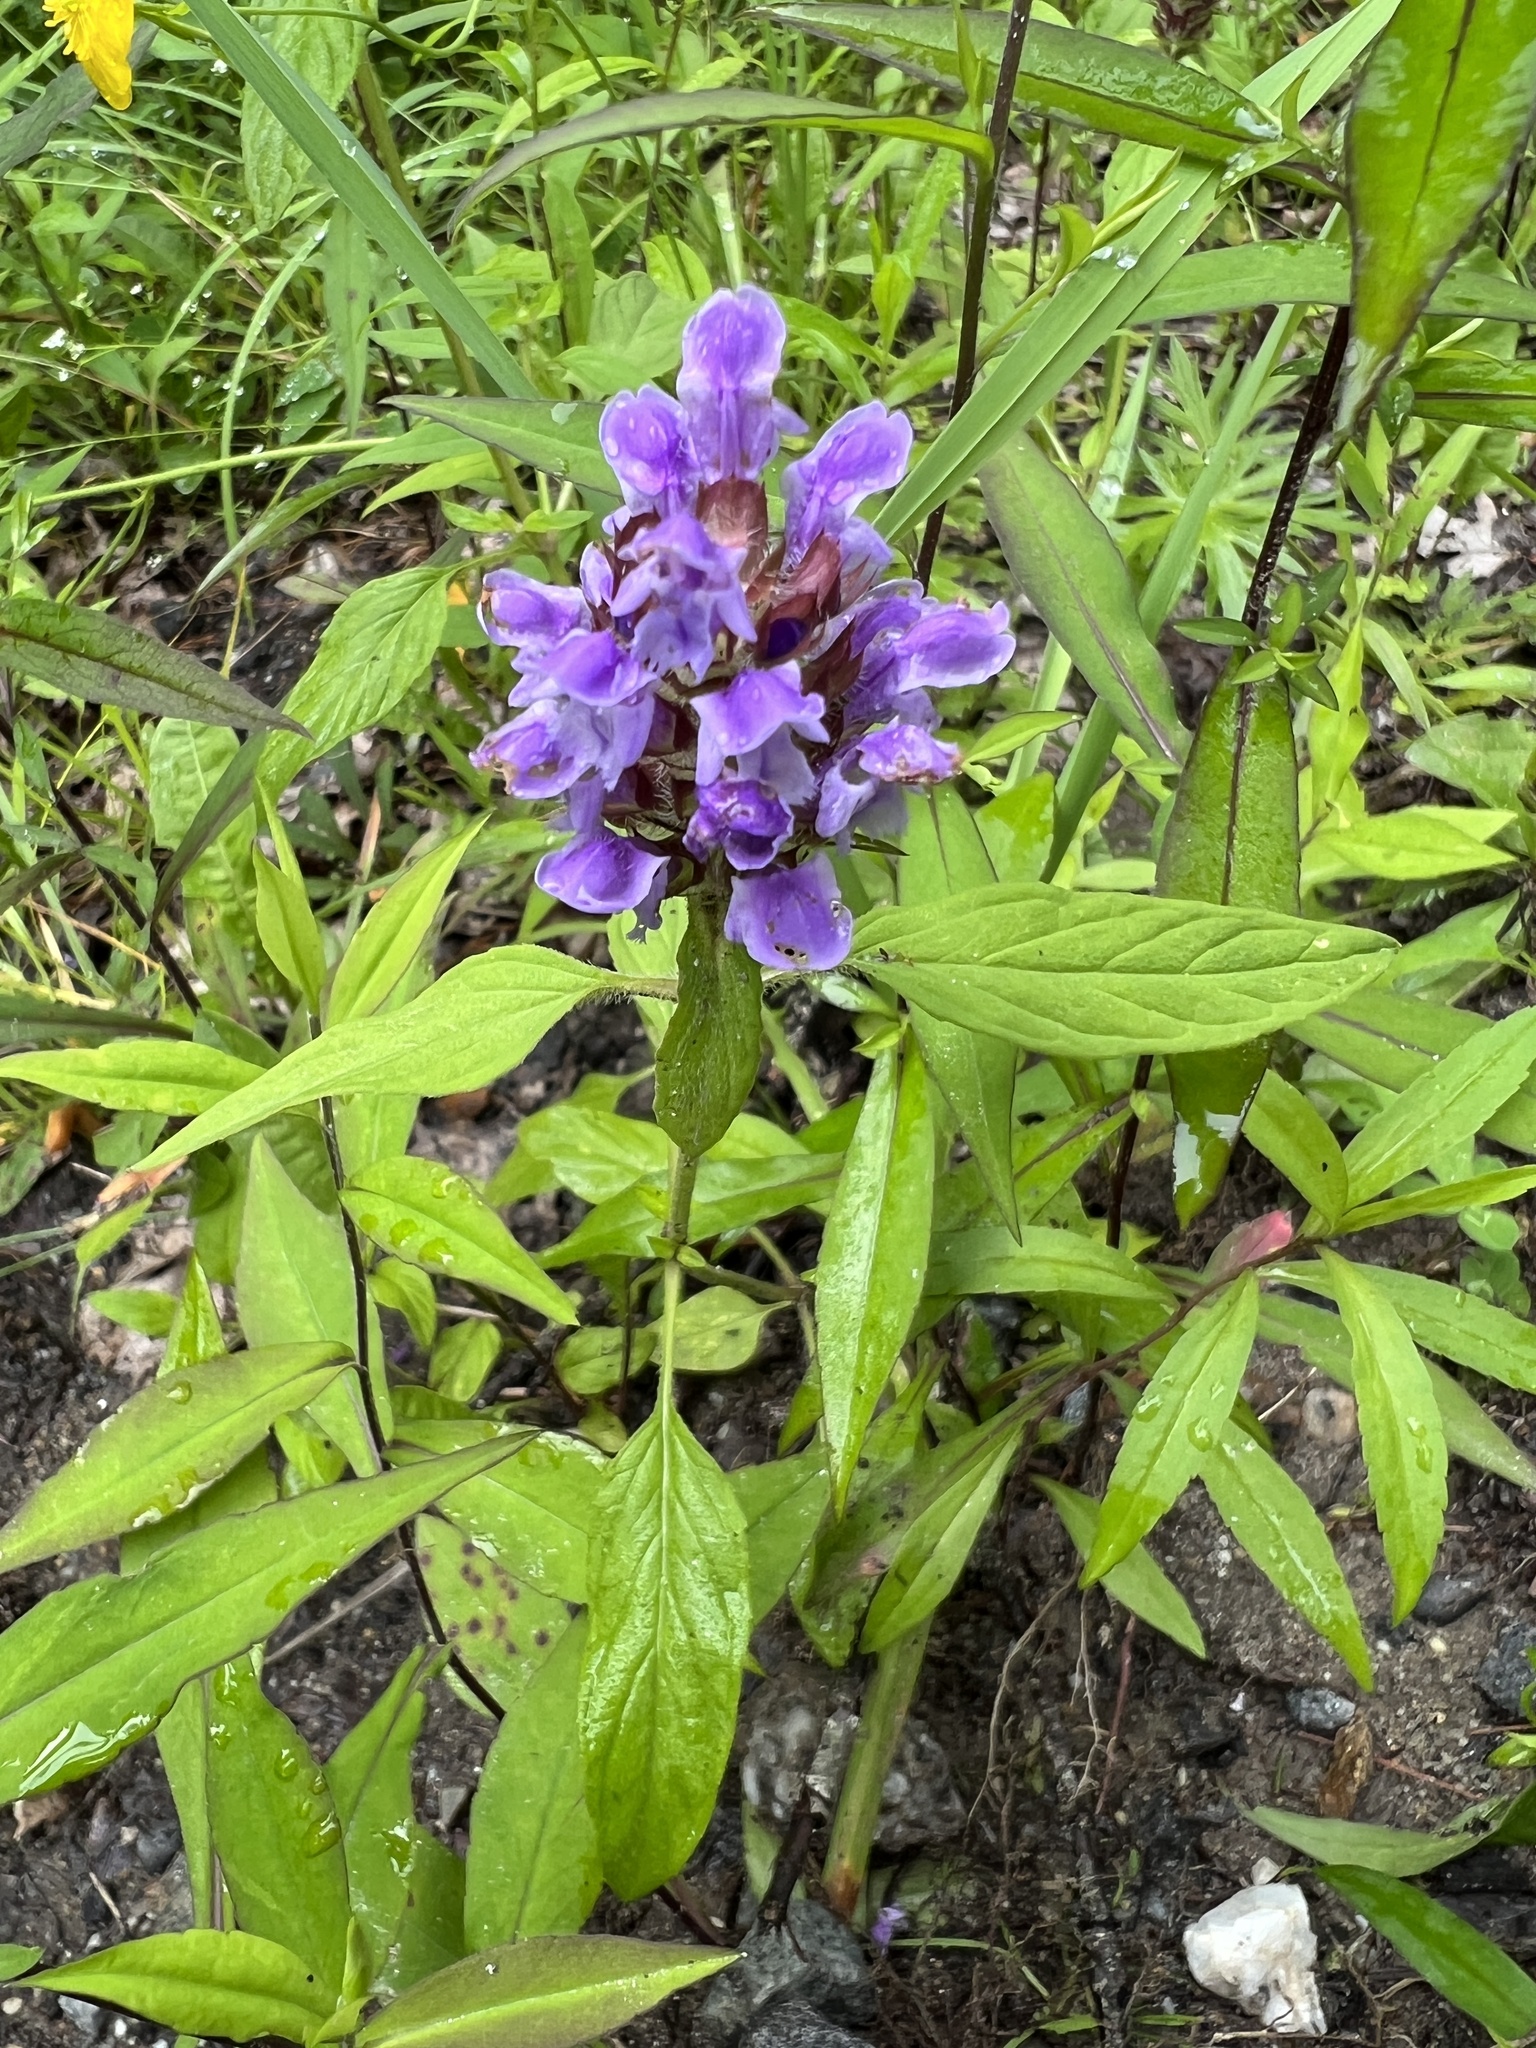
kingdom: Plantae
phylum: Tracheophyta
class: Magnoliopsida
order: Lamiales
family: Lamiaceae
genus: Prunella
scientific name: Prunella vulgaris
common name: Heal-all
